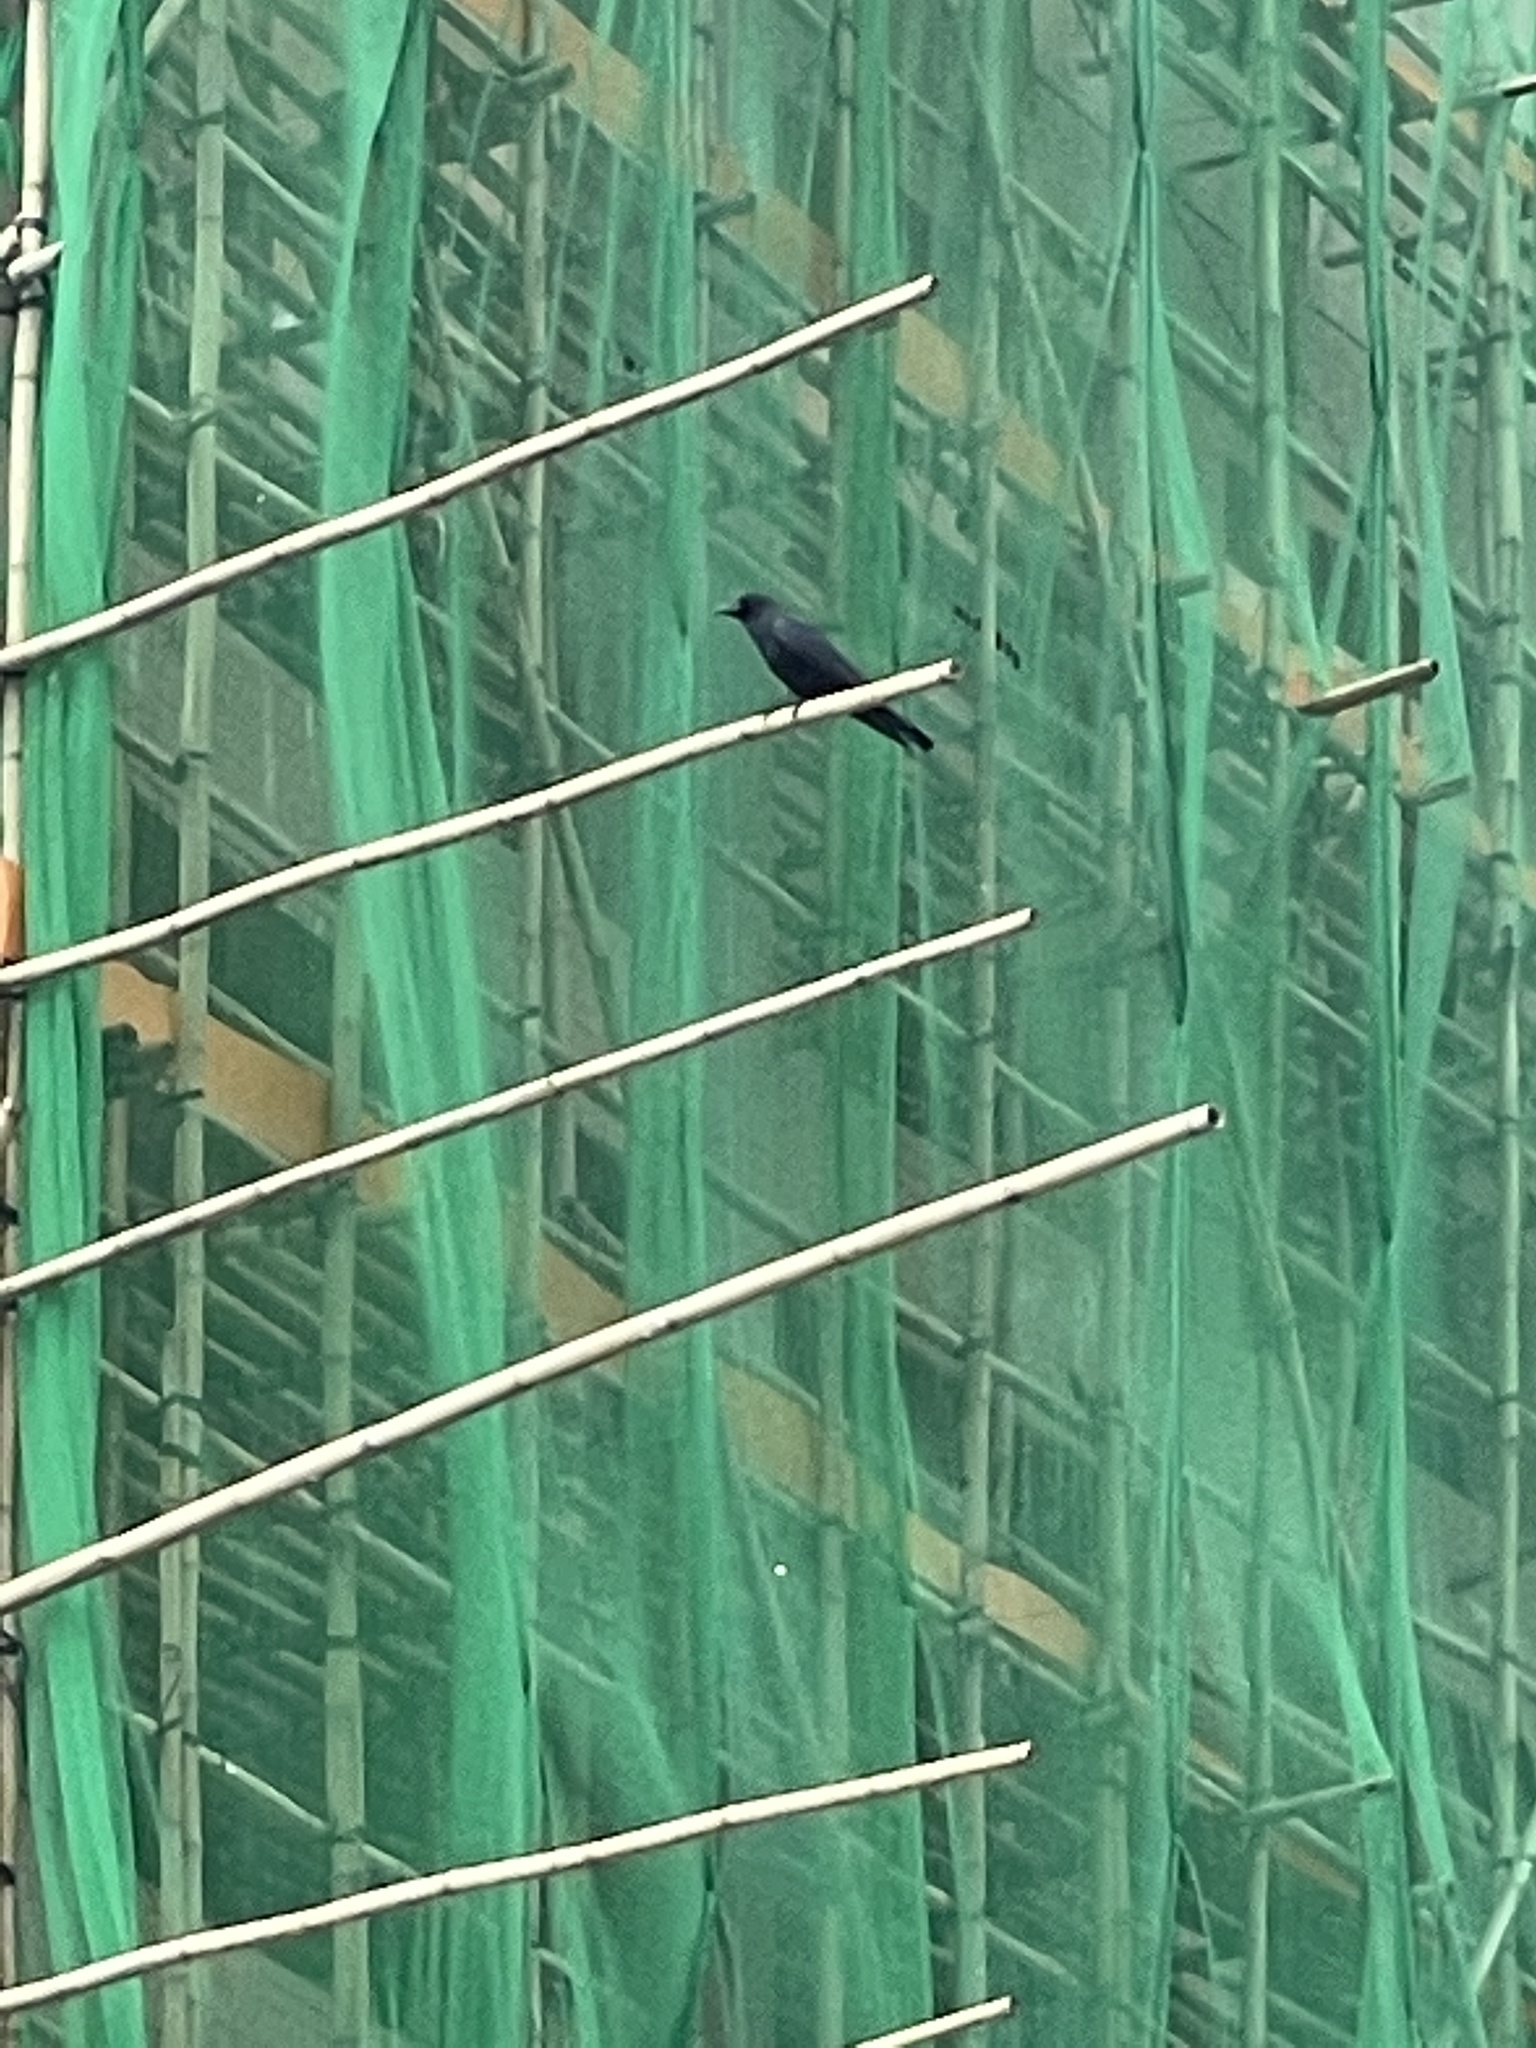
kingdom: Animalia
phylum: Chordata
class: Aves
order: Passeriformes
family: Corvidae
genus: Corvus
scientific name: Corvus macrorhynchos
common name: Large-billed crow
